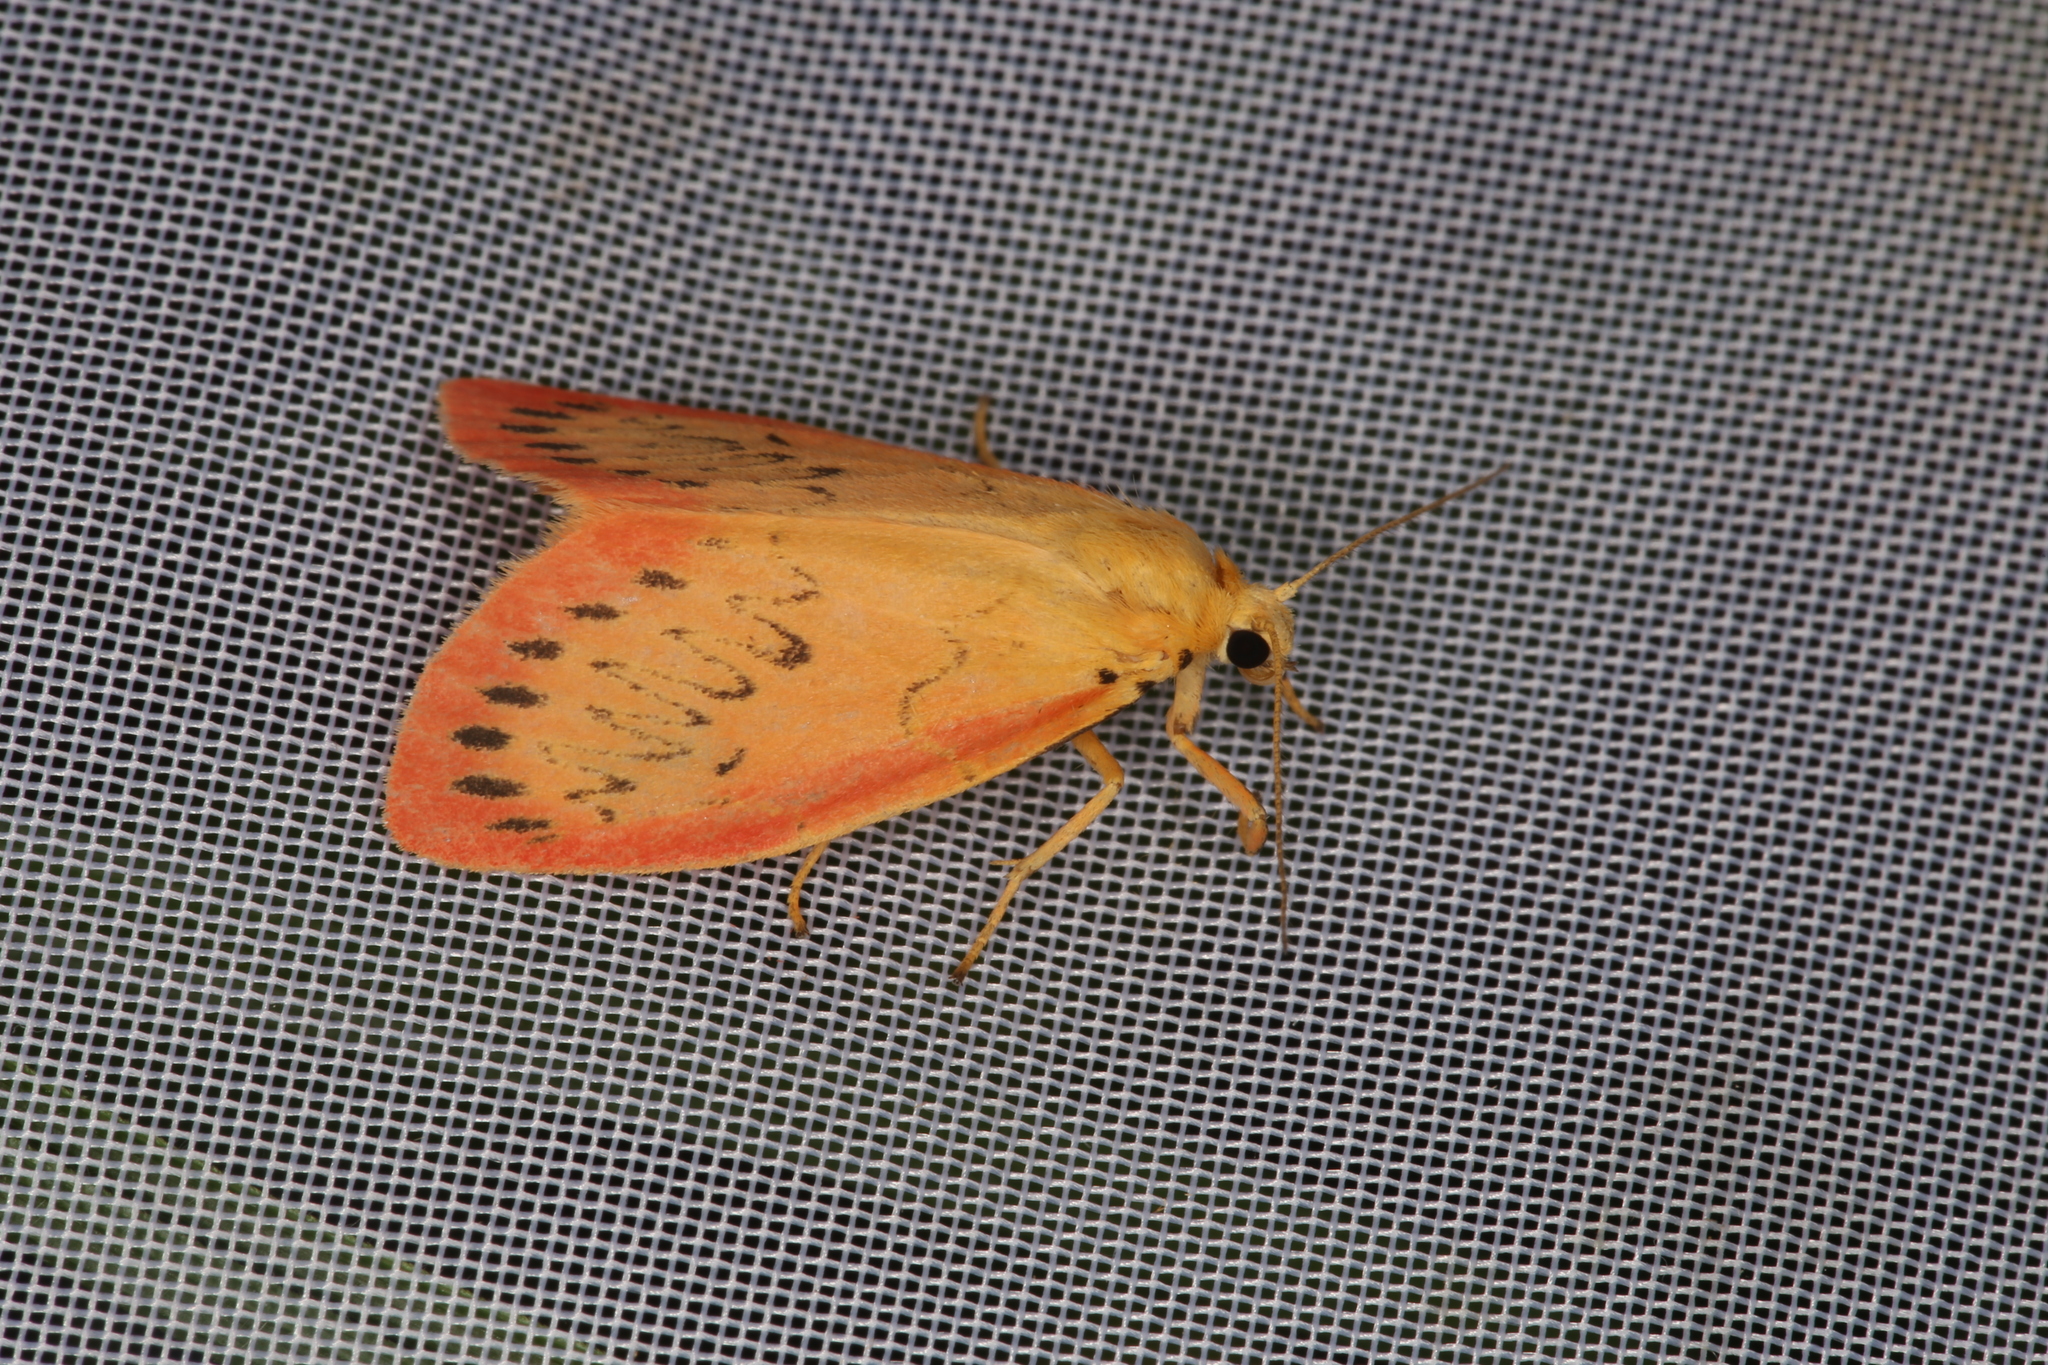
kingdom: Animalia
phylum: Arthropoda
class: Insecta
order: Lepidoptera
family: Erebidae
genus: Miltochrista
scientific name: Miltochrista miniata
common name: Rosy footman
